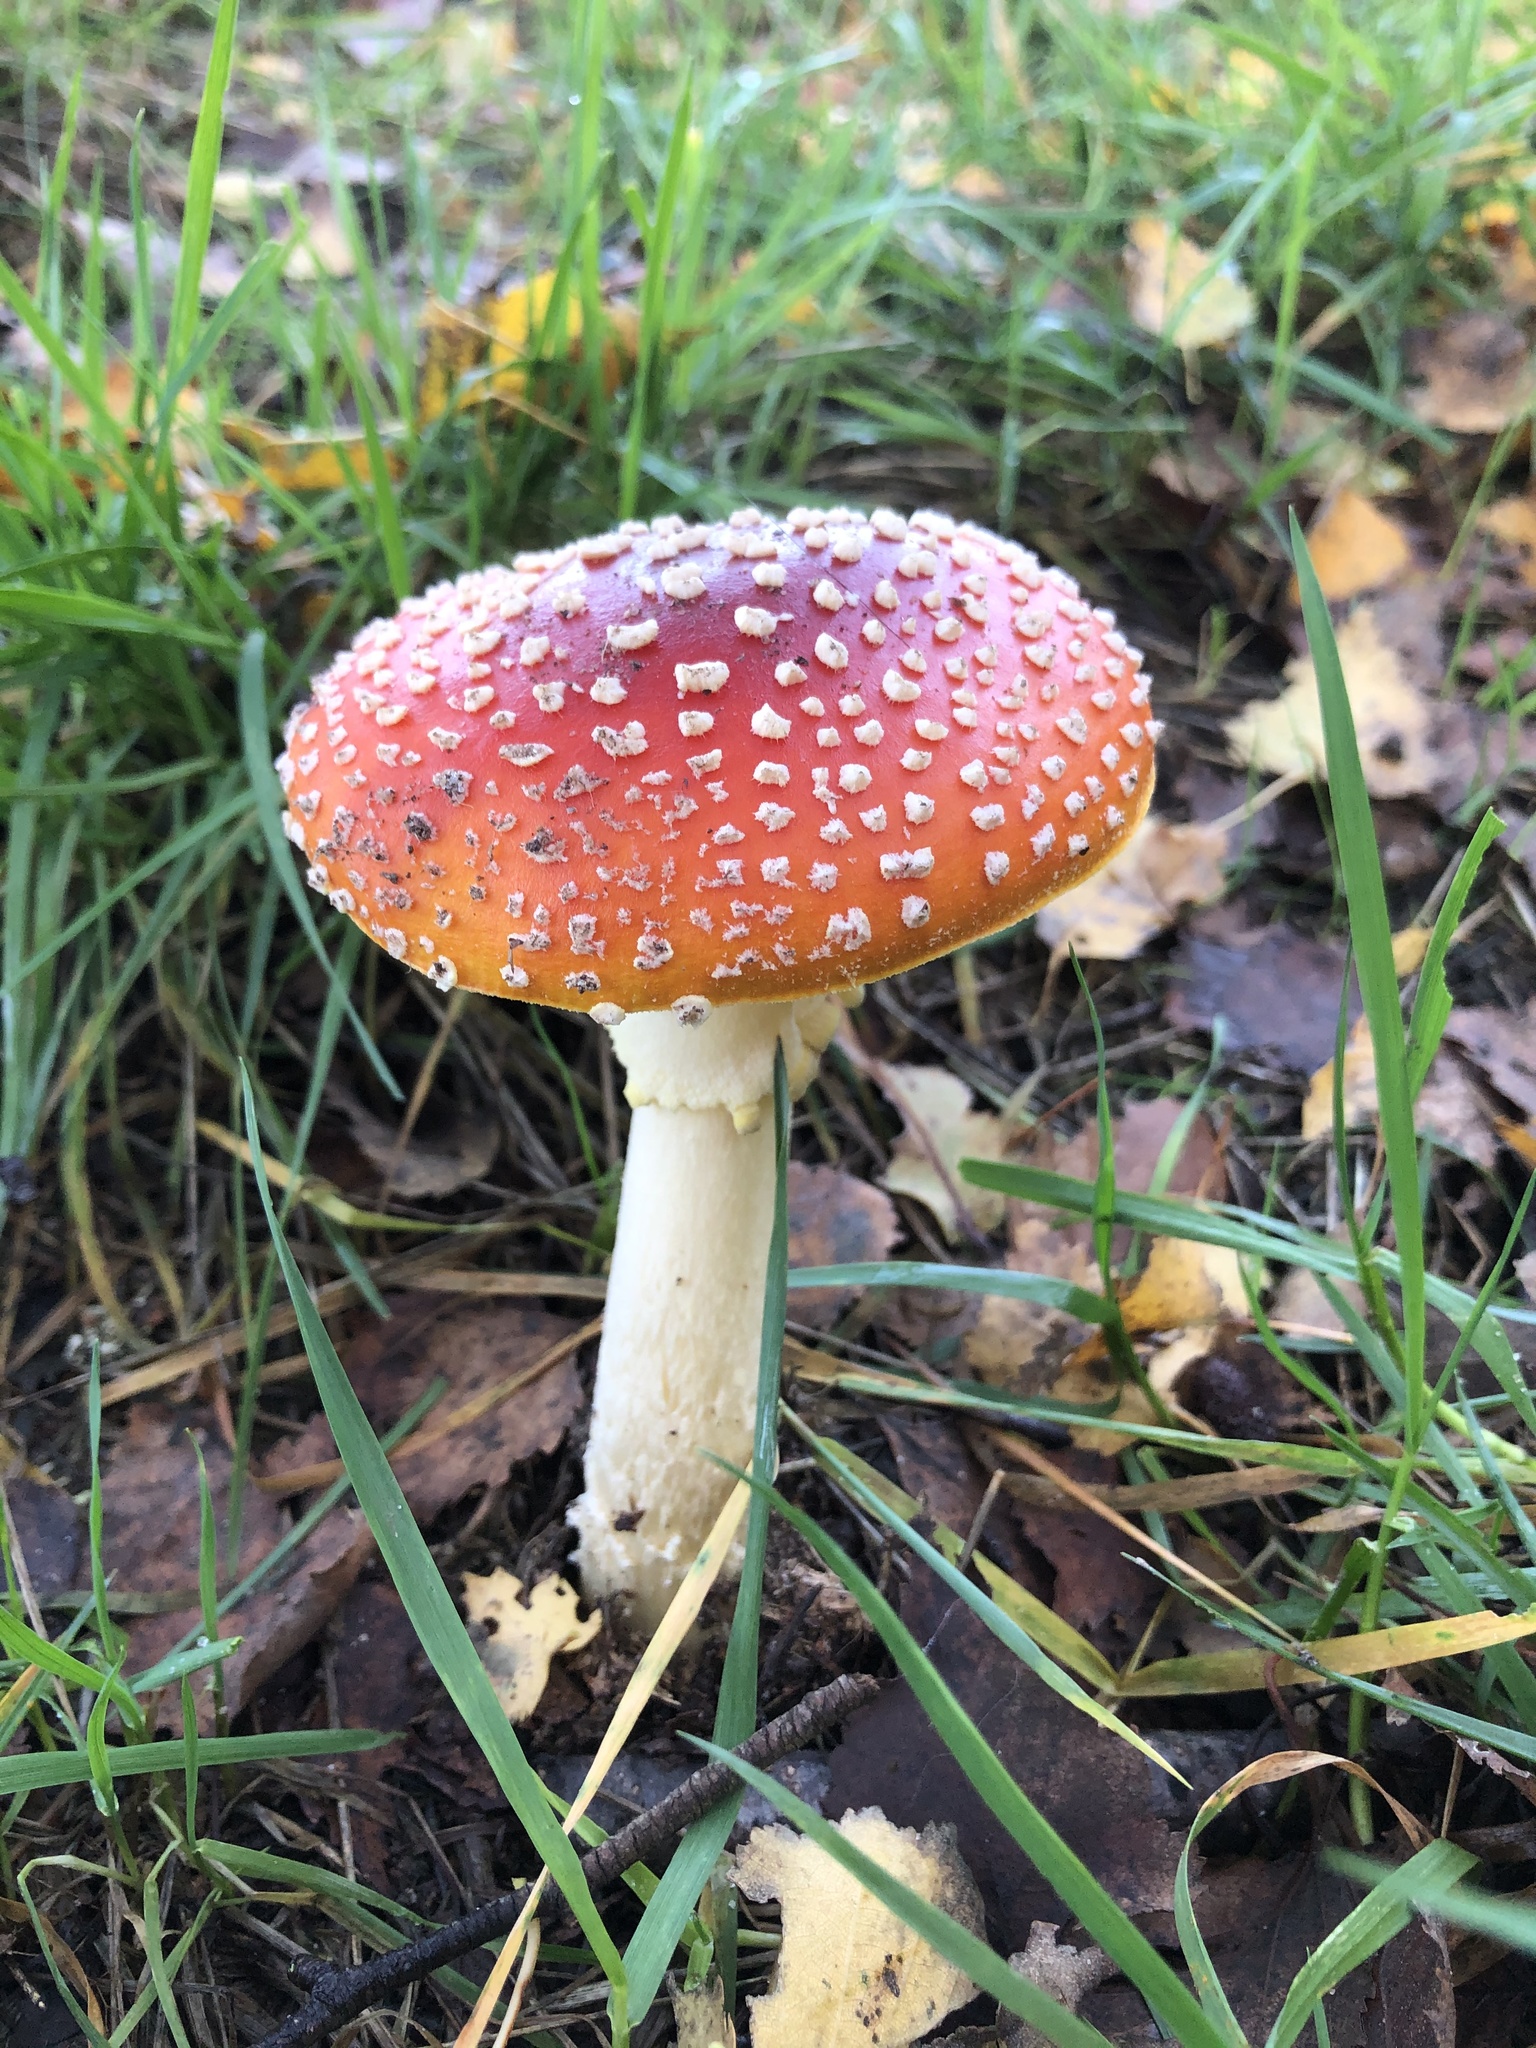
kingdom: Fungi
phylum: Basidiomycota
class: Agaricomycetes
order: Agaricales
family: Amanitaceae
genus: Amanita
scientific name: Amanita muscaria
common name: Fly agaric
